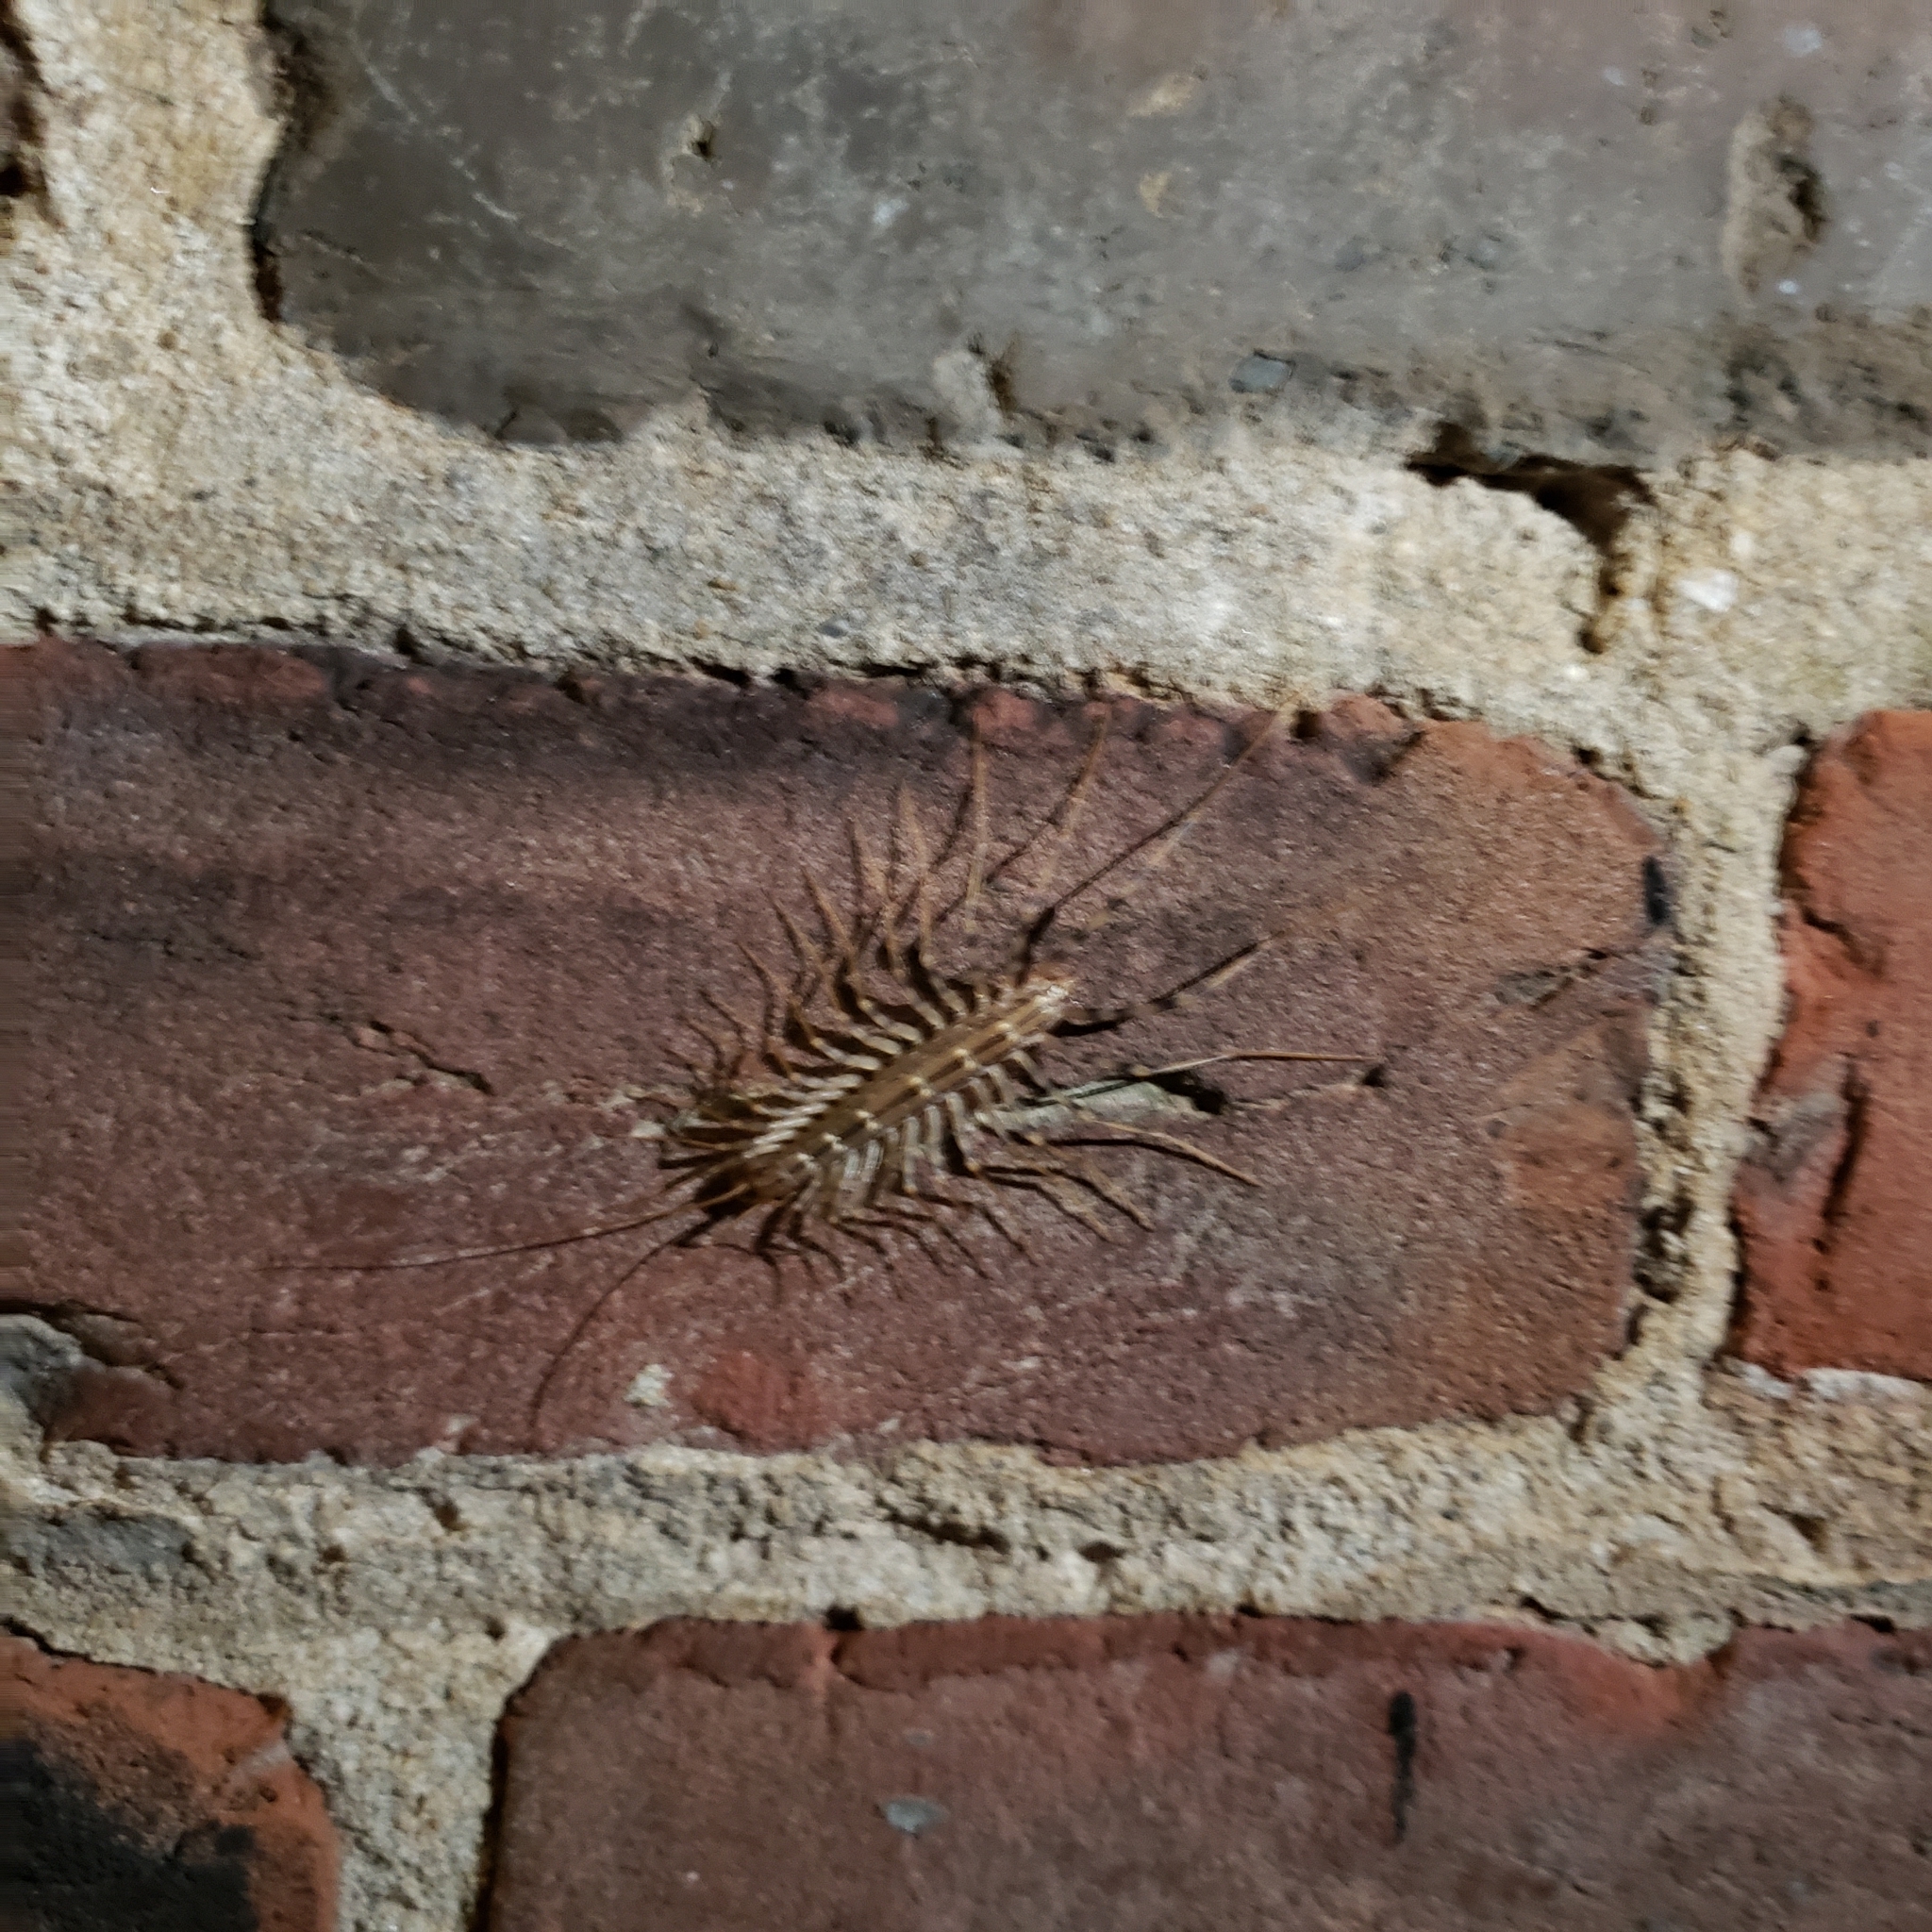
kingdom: Animalia
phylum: Arthropoda
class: Chilopoda
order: Scutigeromorpha
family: Scutigeridae
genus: Scutigera
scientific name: Scutigera coleoptrata
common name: House centipede
